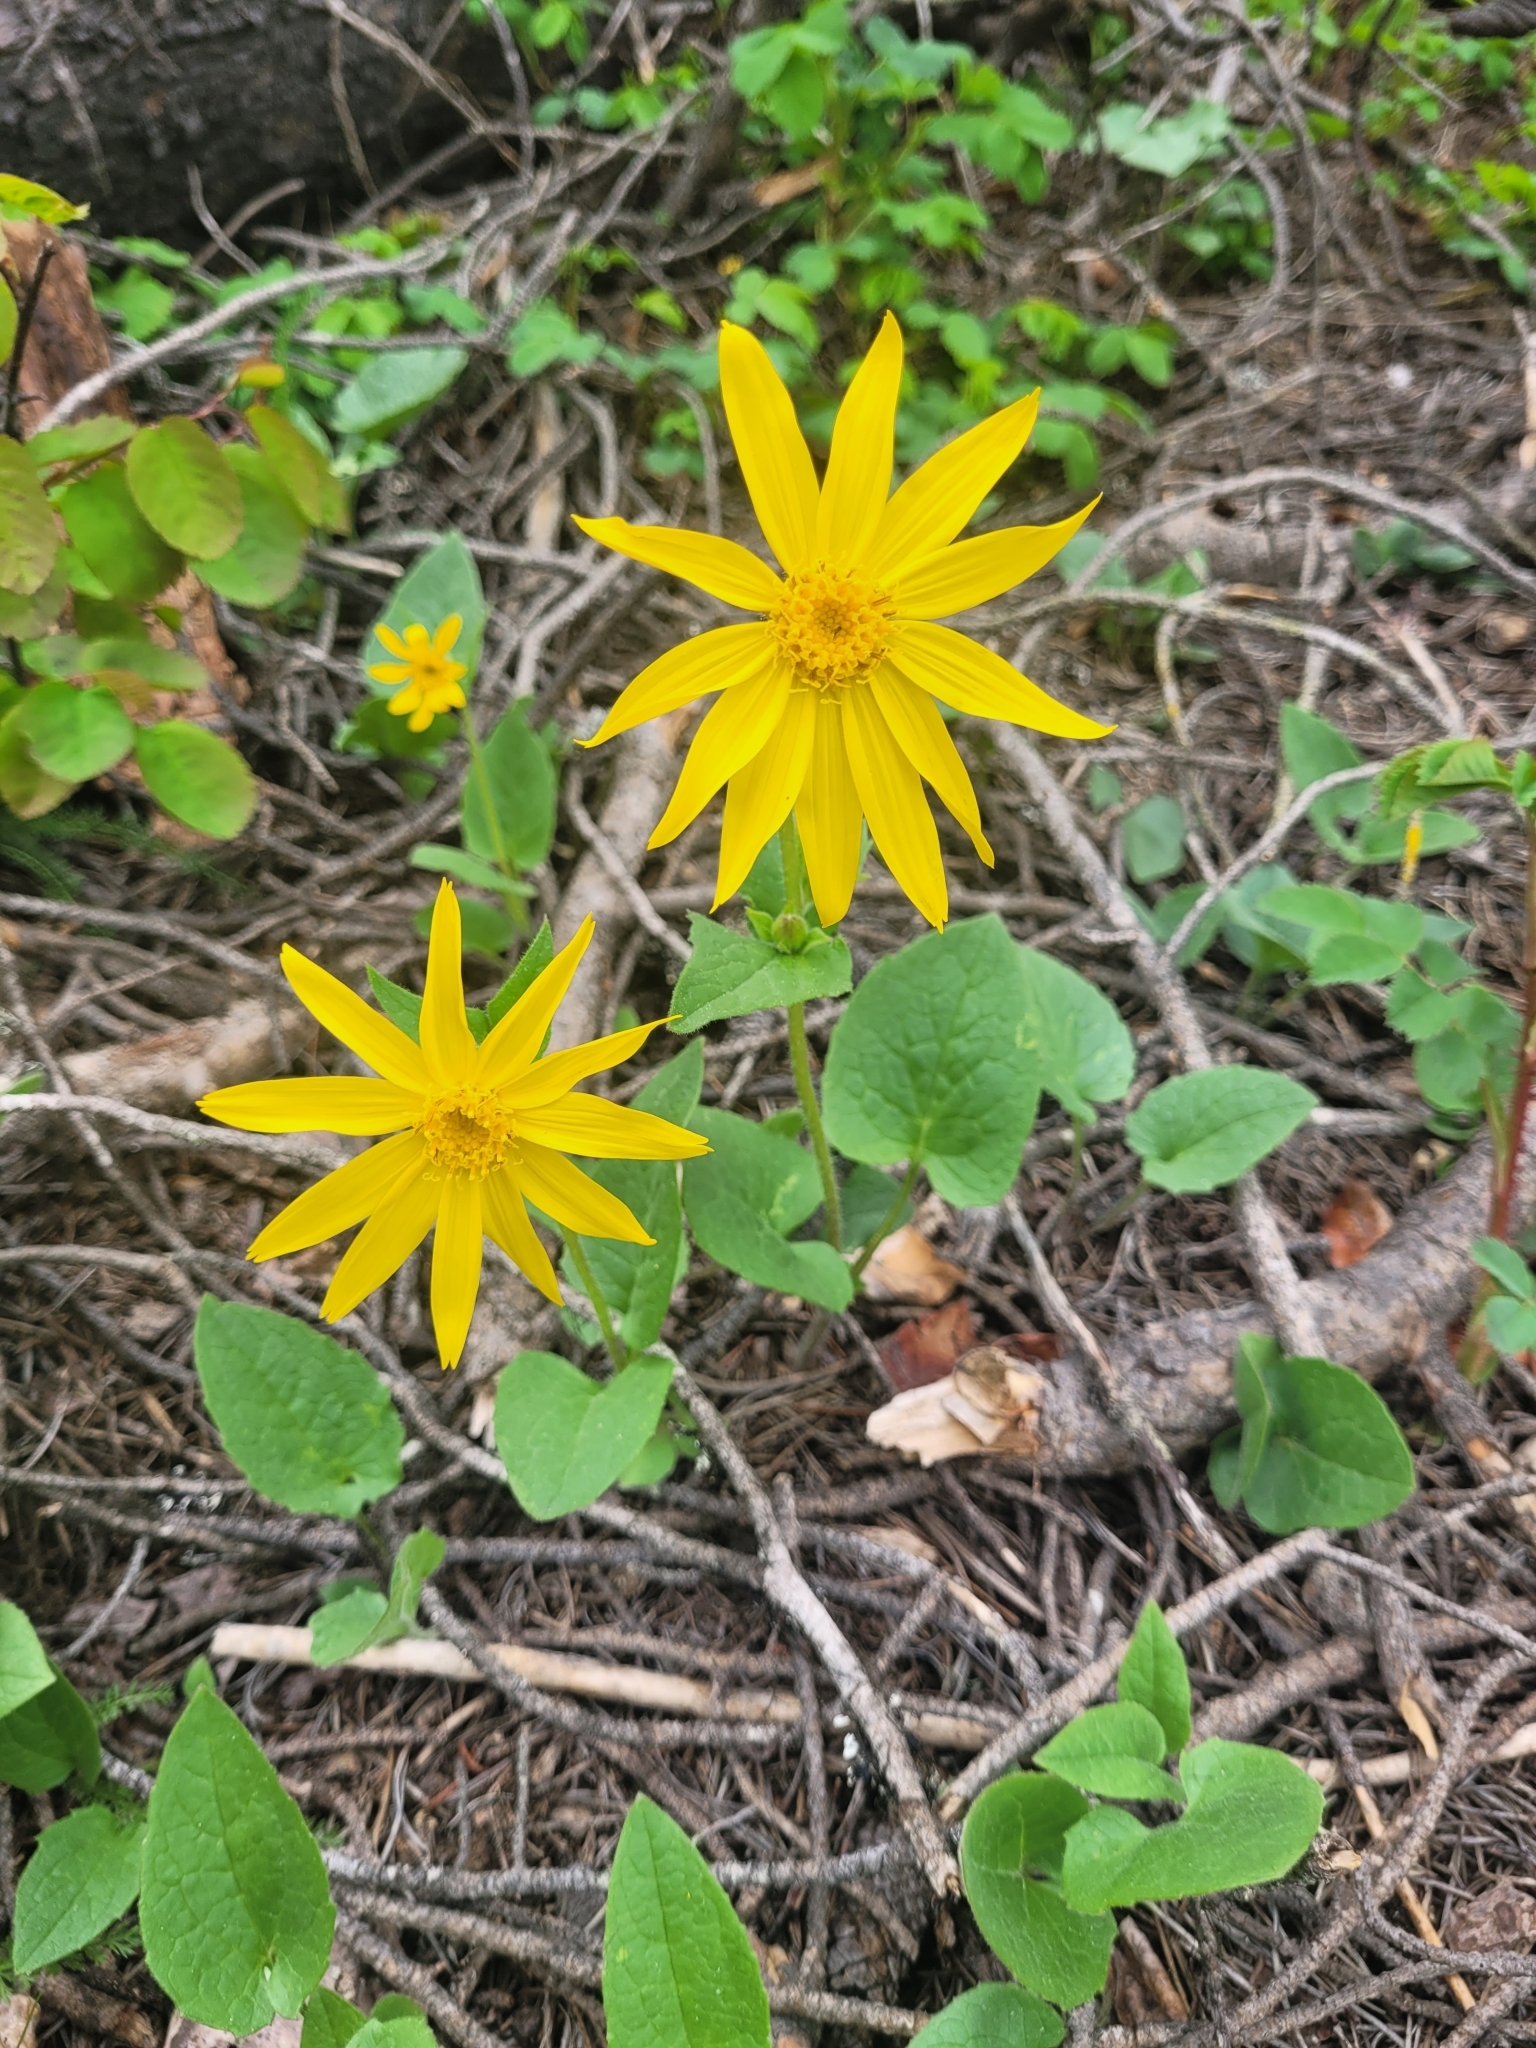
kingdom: Plantae
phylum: Tracheophyta
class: Magnoliopsida
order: Asterales
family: Asteraceae
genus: Arnica
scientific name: Arnica cordifolia
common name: Heart-leaf arnica
